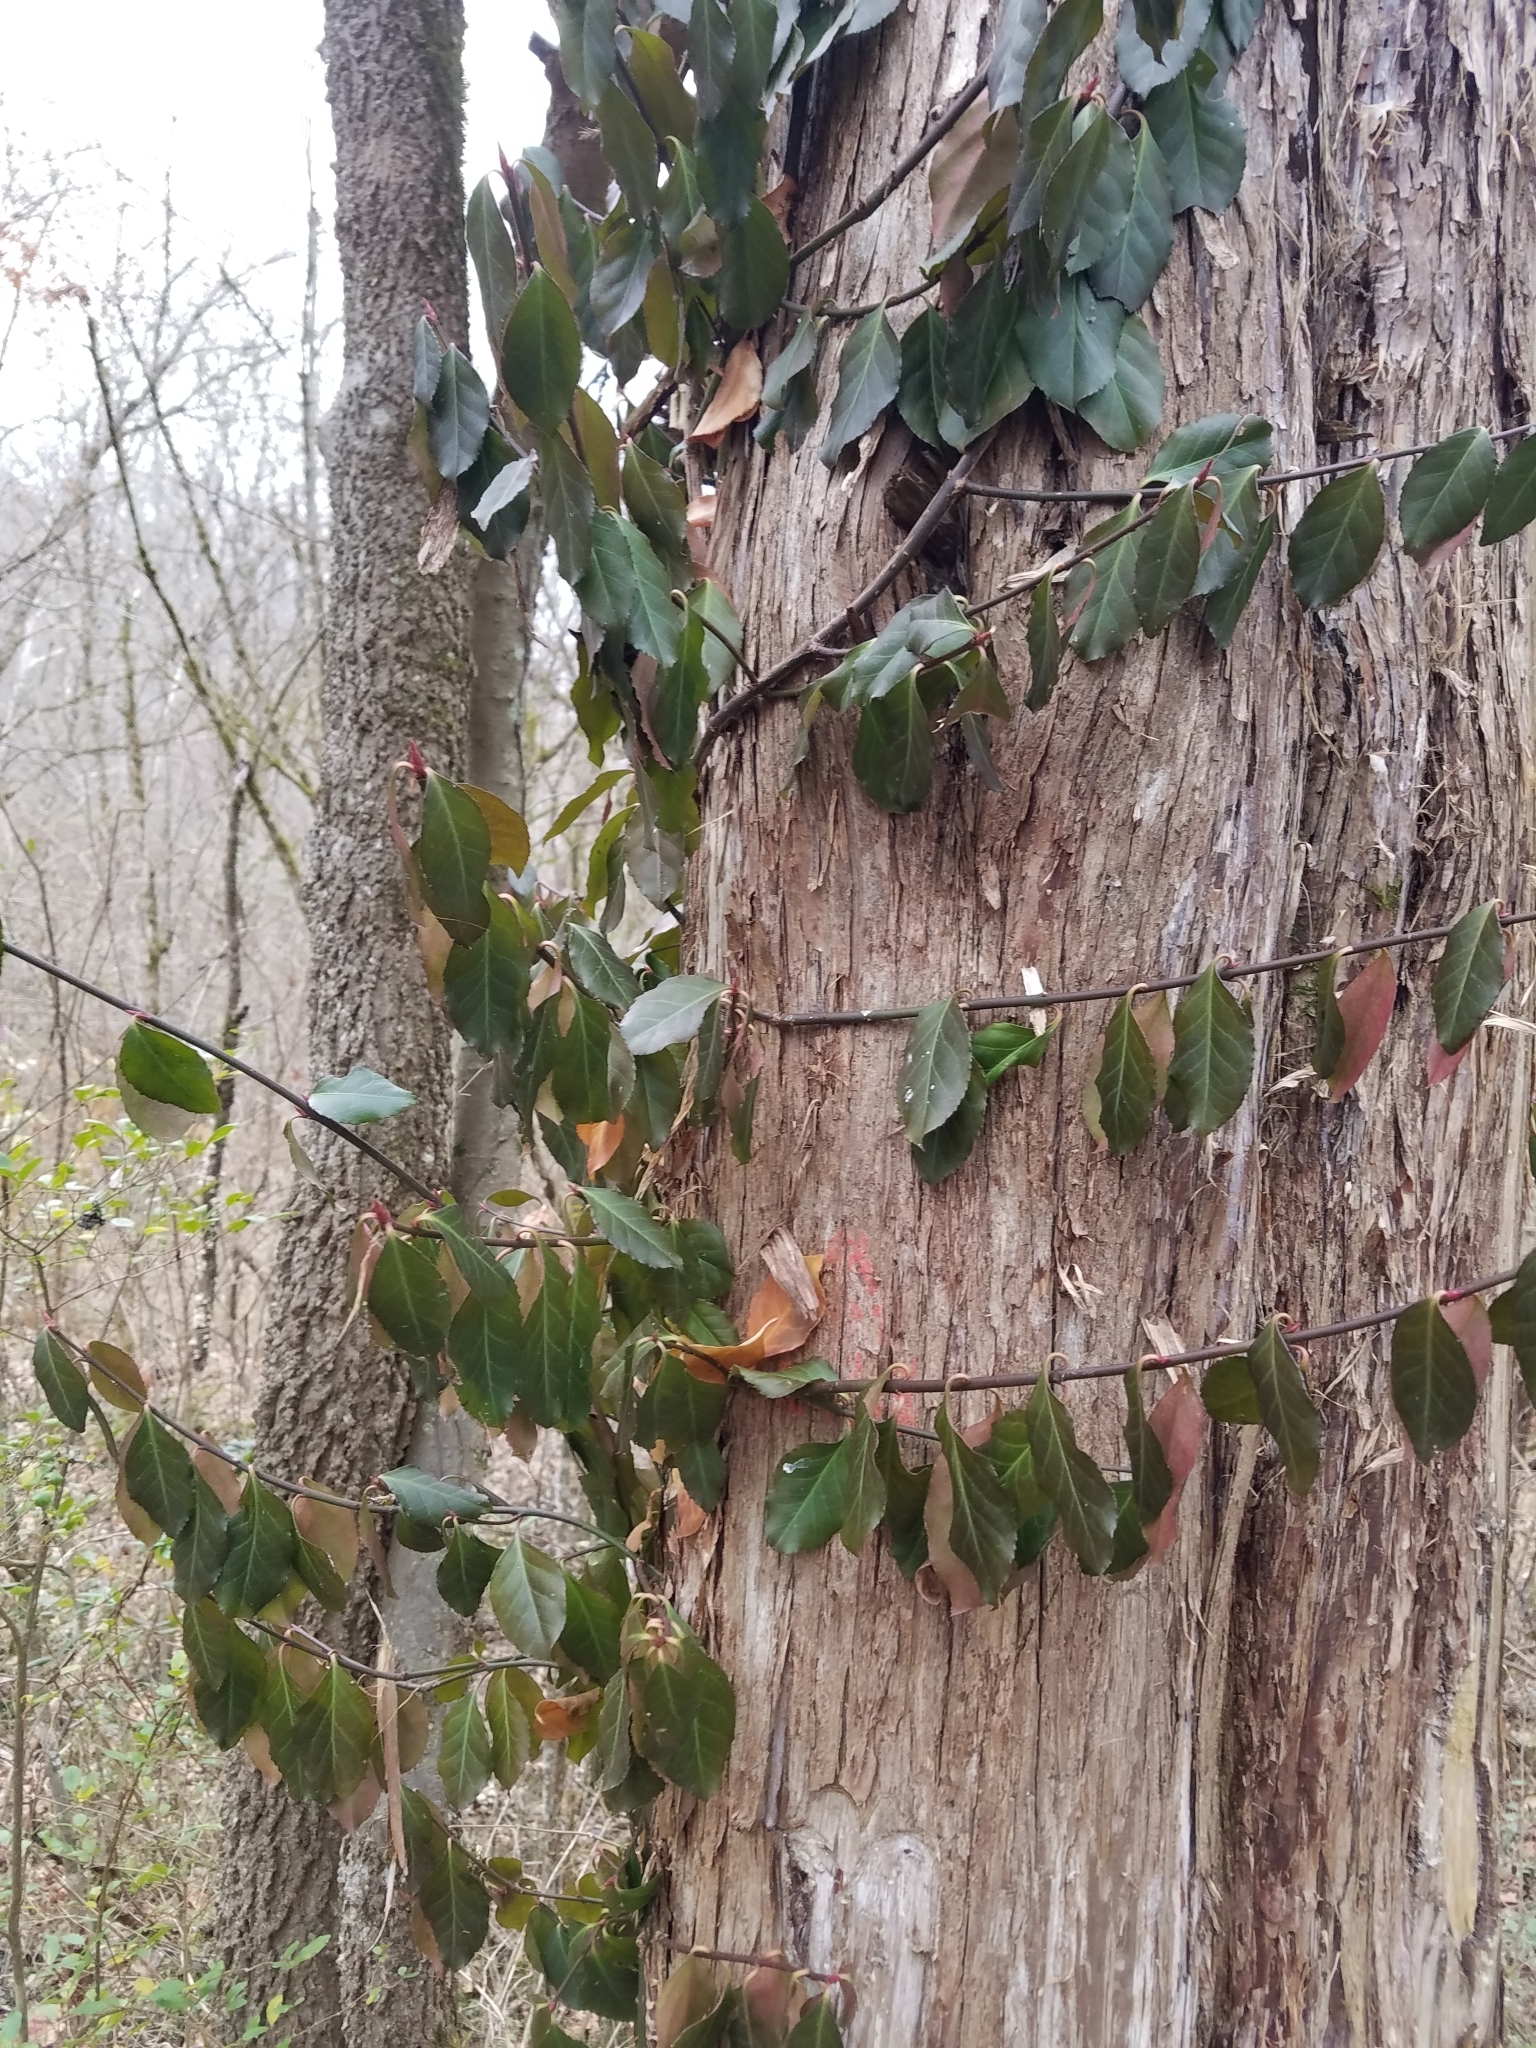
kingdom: Plantae
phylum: Tracheophyta
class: Magnoliopsida
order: Celastrales
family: Celastraceae
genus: Euonymus
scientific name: Euonymus fortunei
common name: Climbing euonymus
